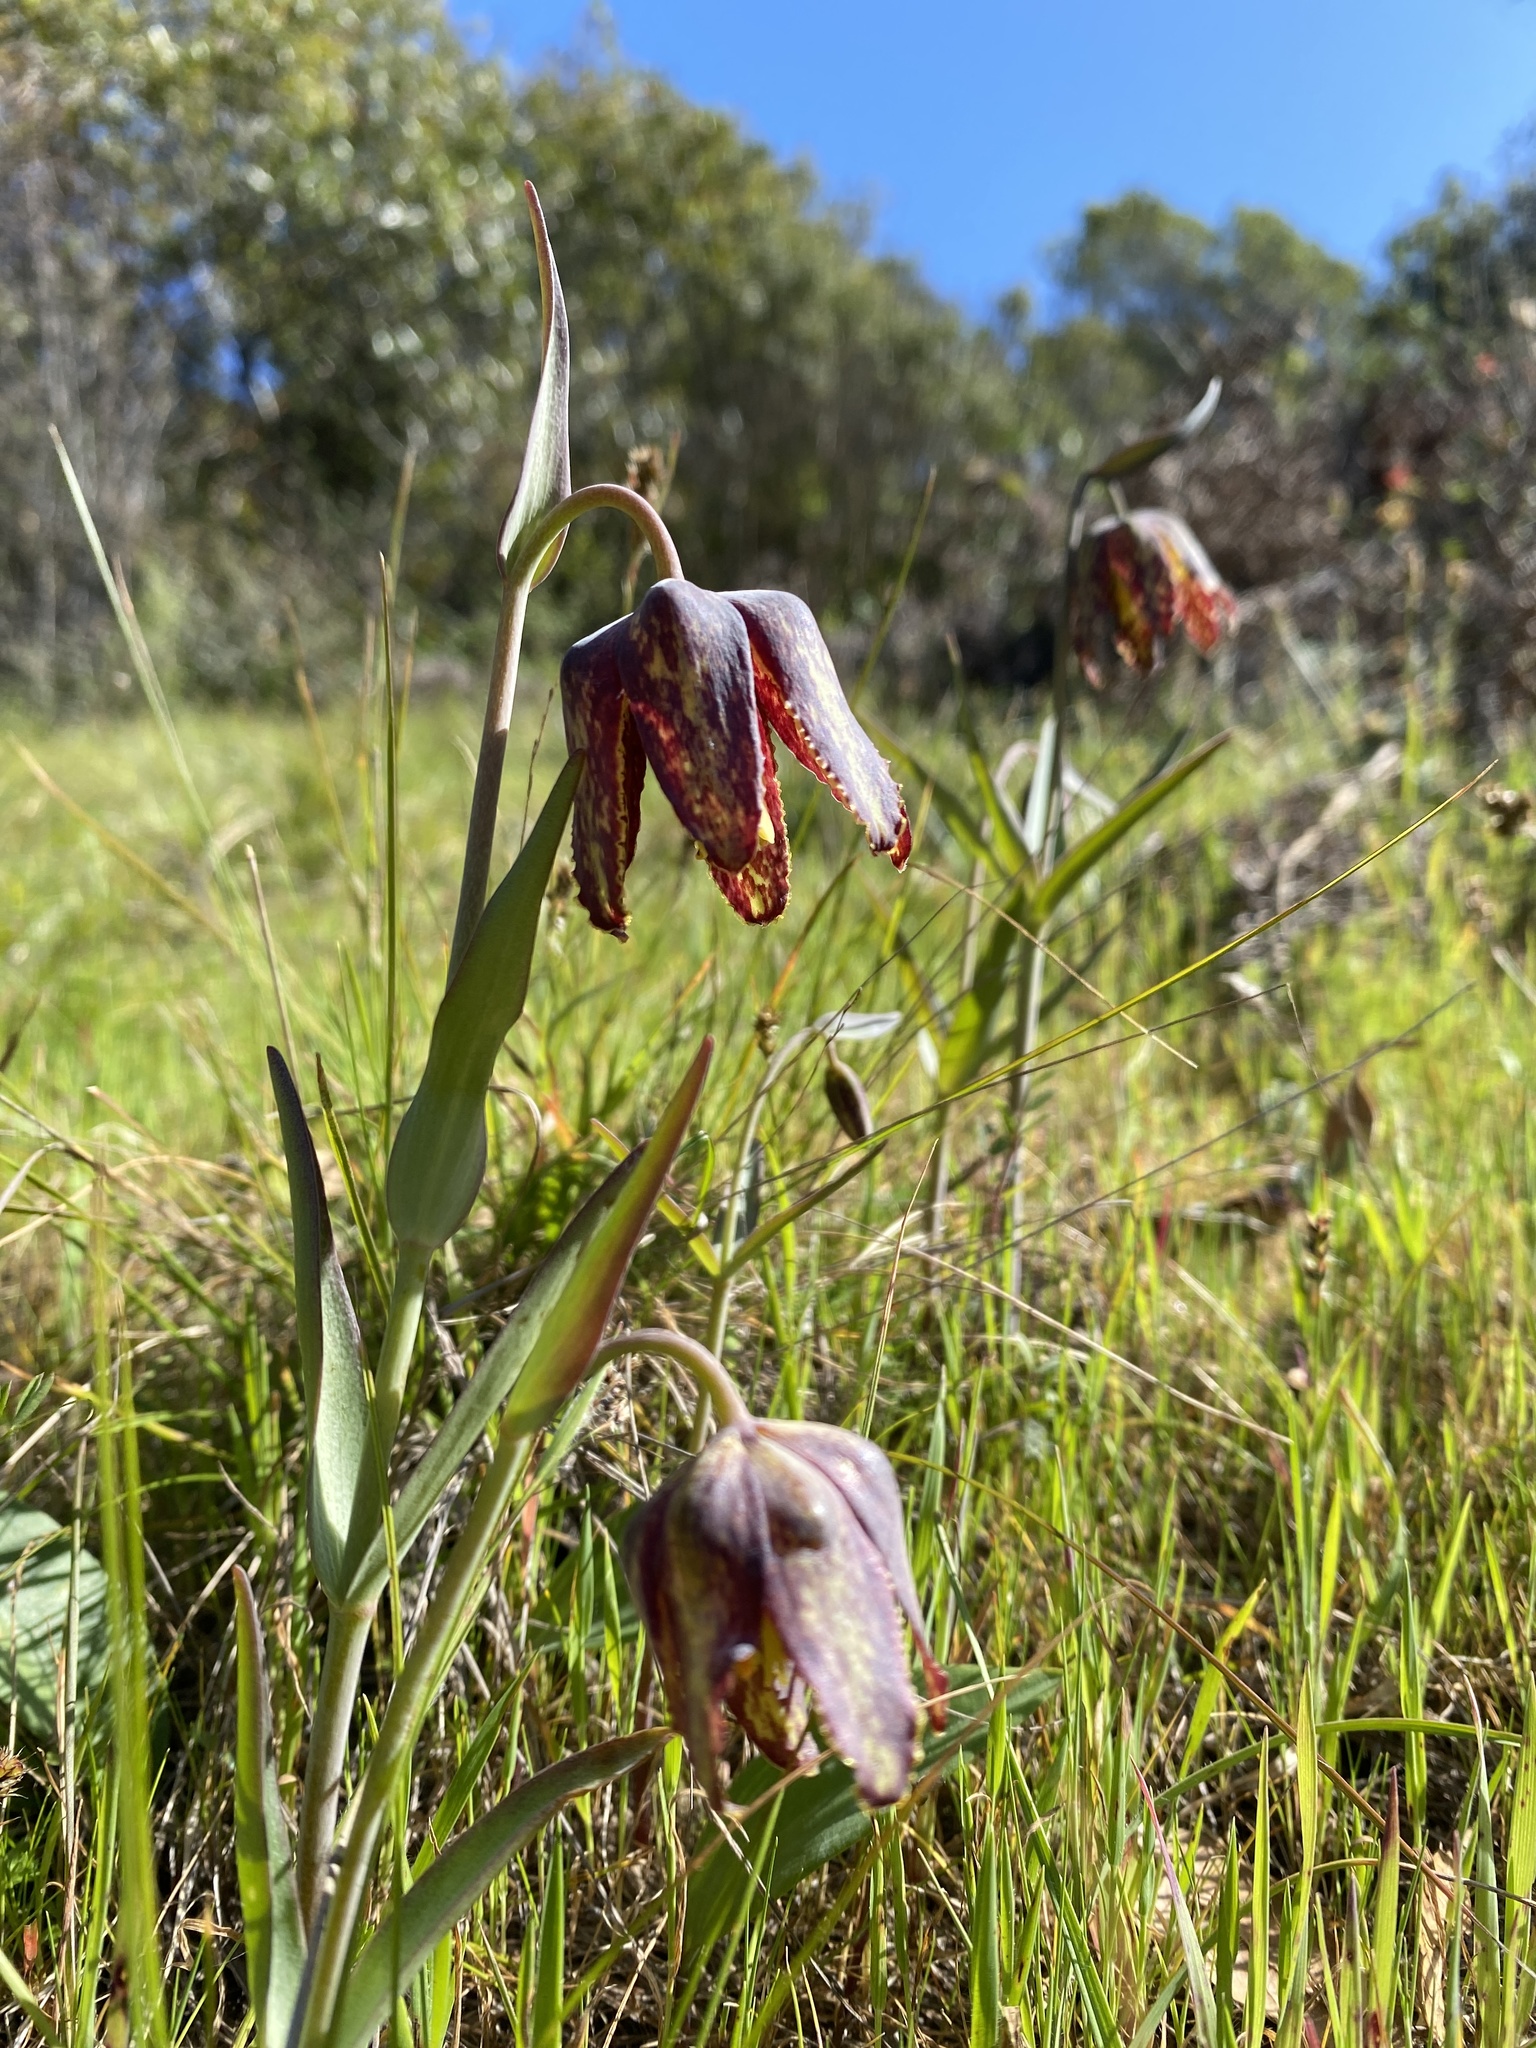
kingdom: Plantae
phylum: Tracheophyta
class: Liliopsida
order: Liliales
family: Liliaceae
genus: Fritillaria
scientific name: Fritillaria affinis
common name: Ojai fritillary
